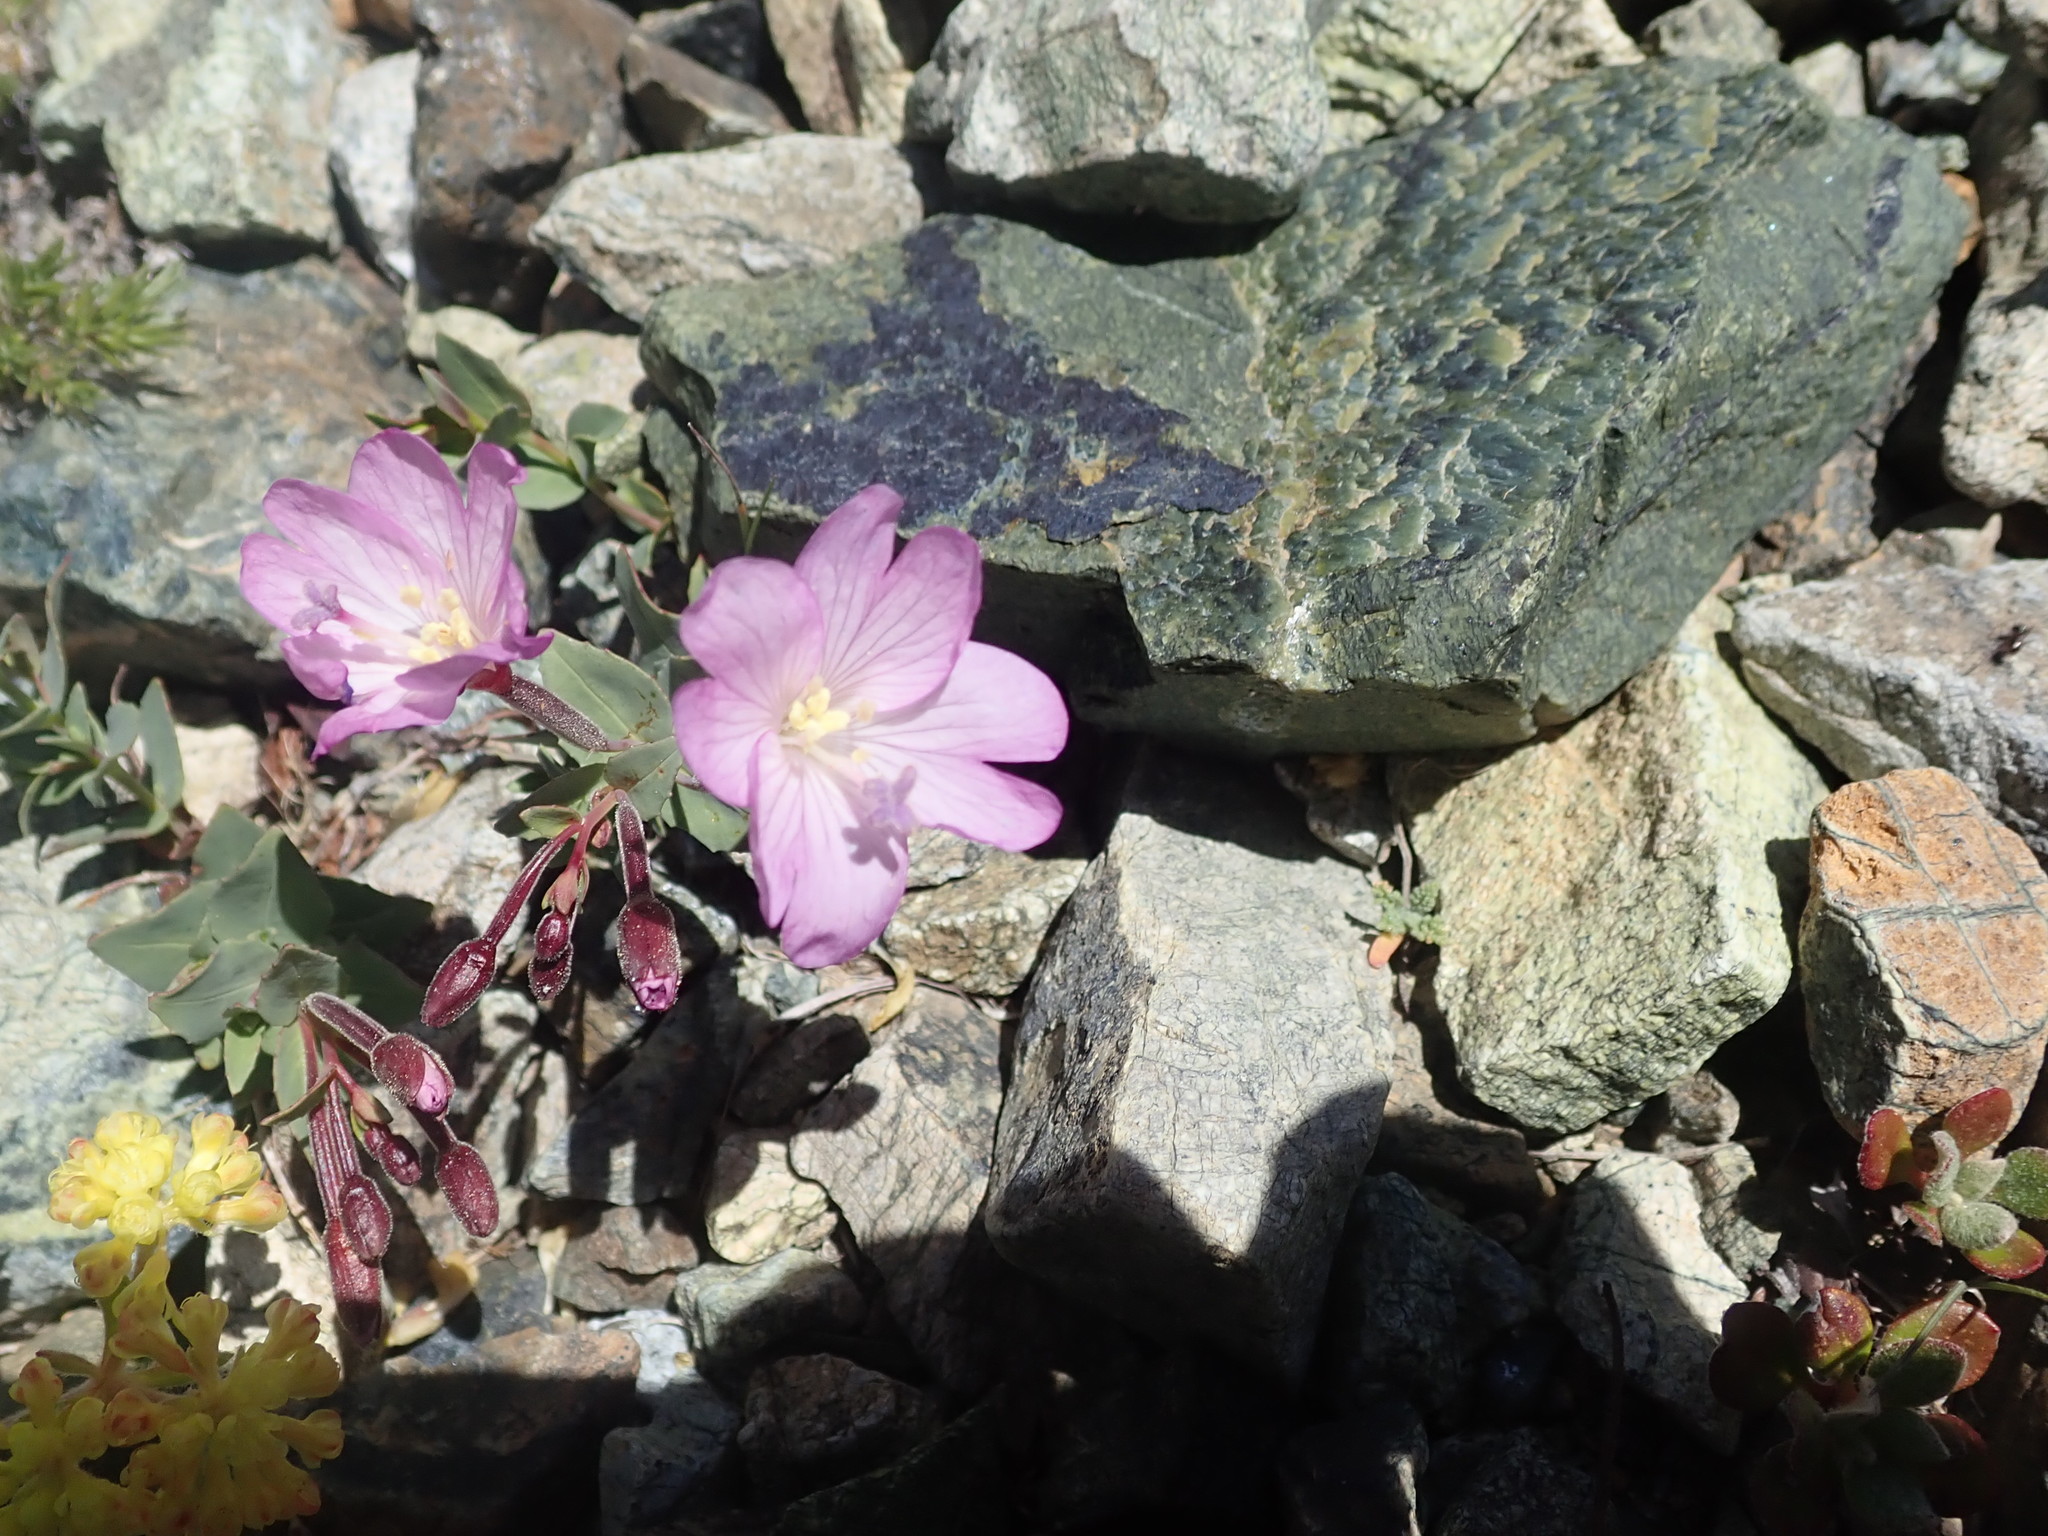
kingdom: Plantae
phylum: Tracheophyta
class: Magnoliopsida
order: Myrtales
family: Onagraceae
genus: Epilobium
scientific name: Epilobium siskiyouense
